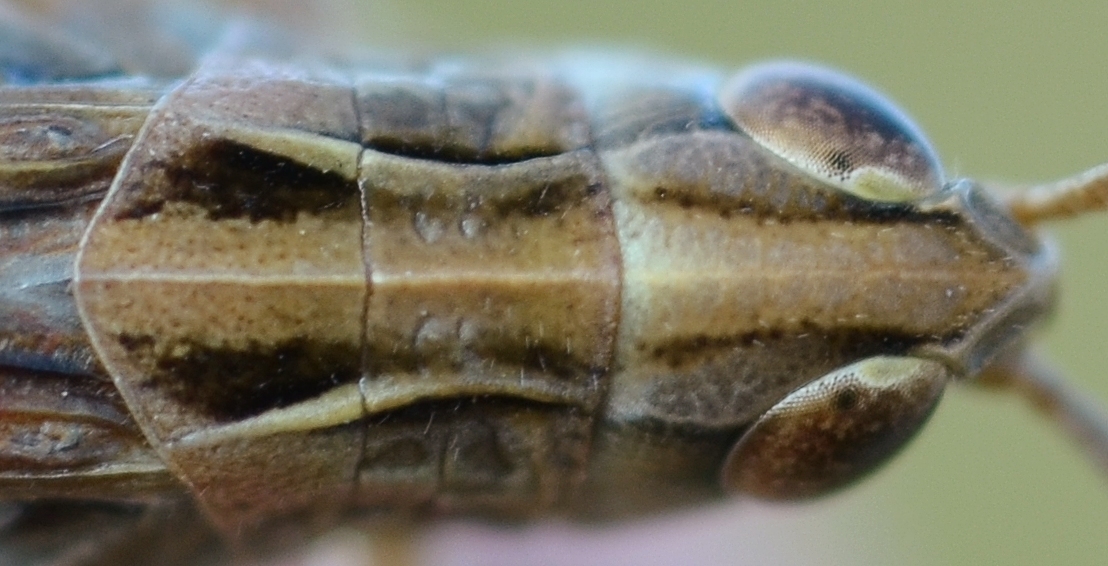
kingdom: Animalia
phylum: Arthropoda
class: Insecta
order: Orthoptera
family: Acrididae
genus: Stenobothrus
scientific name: Stenobothrus stigmaticus
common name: Lesser mottled grasshopper
